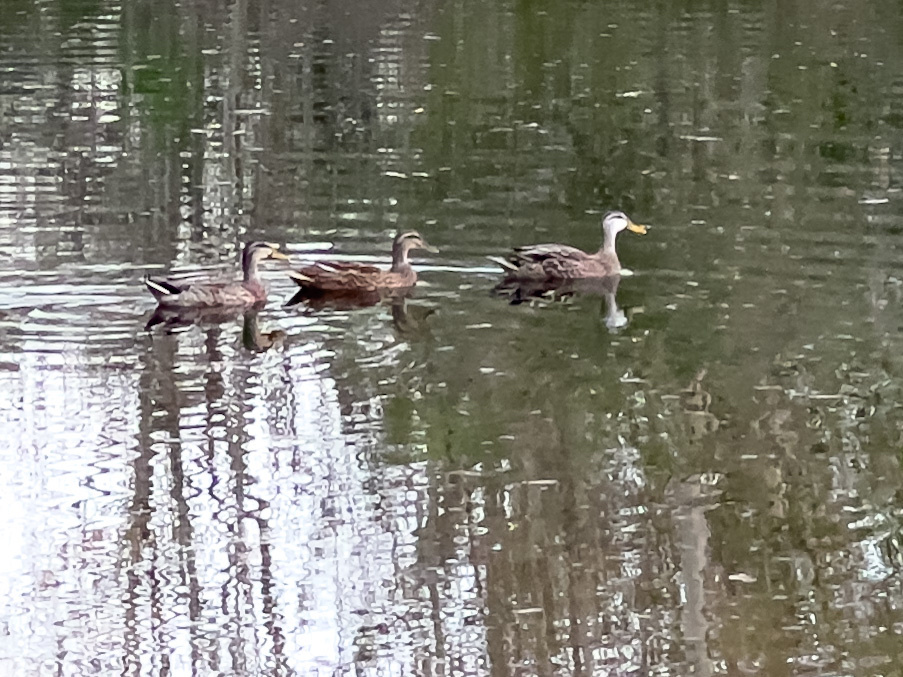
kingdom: Animalia
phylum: Chordata
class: Aves
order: Anseriformes
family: Anatidae
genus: Anas
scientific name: Anas
